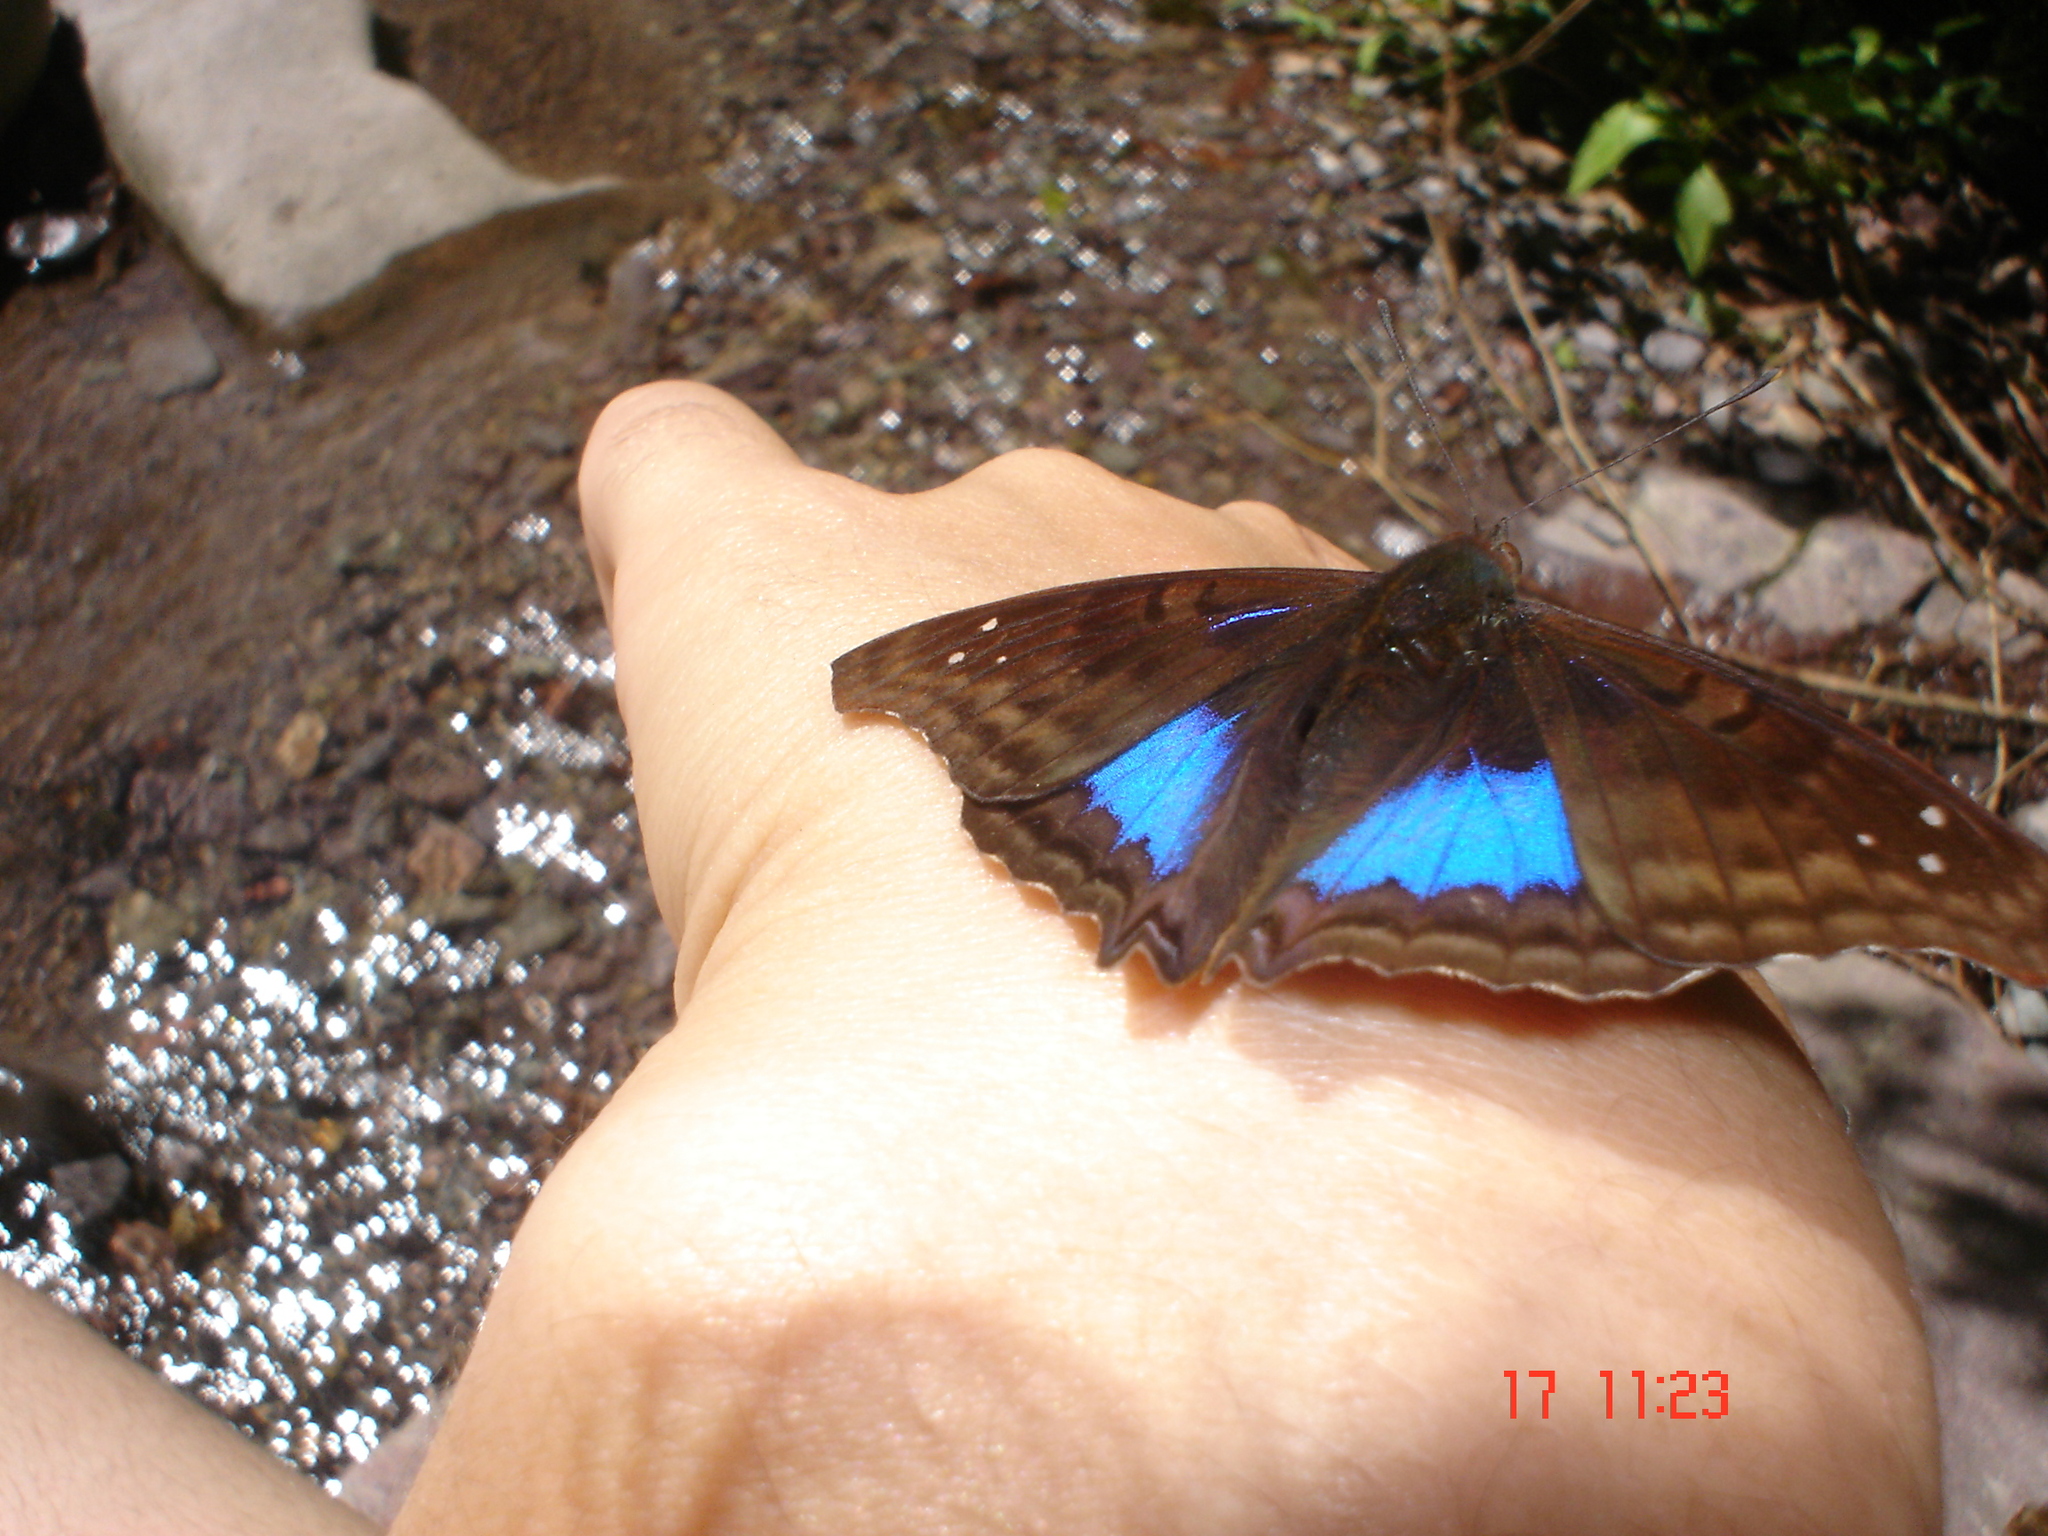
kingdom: Animalia
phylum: Arthropoda
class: Insecta
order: Lepidoptera
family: Nymphalidae
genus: Doxocopa
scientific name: Doxocopa cyane
